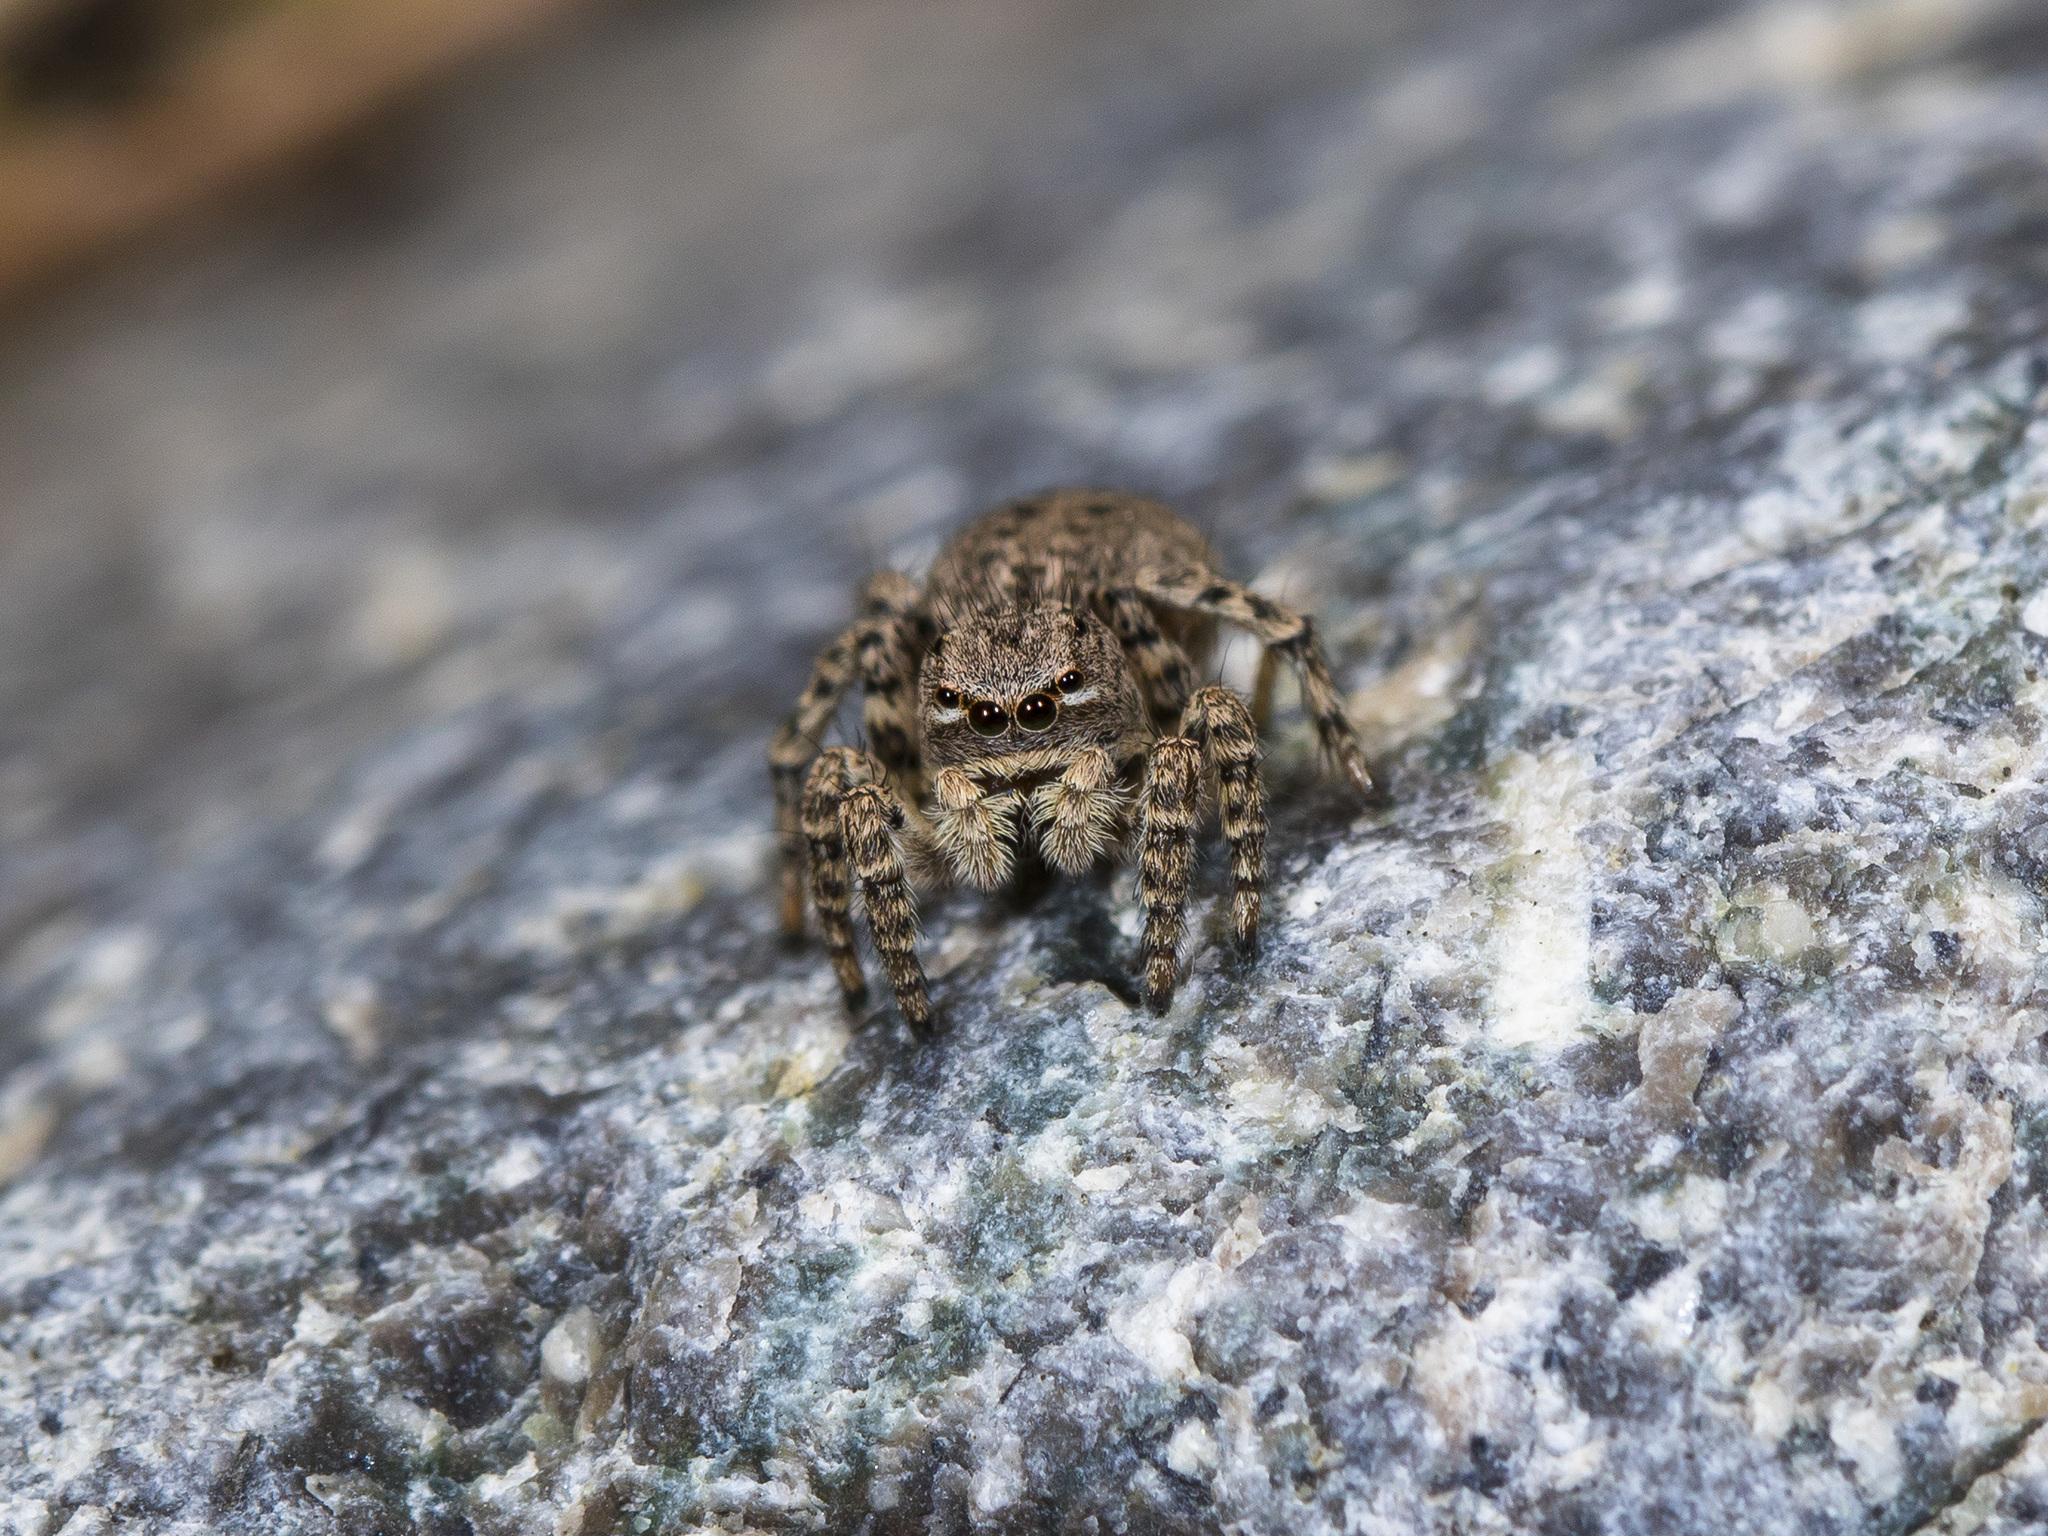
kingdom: Animalia
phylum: Arthropoda
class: Arachnida
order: Araneae
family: Salticidae
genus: Aelurillus
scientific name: Aelurillus v-insignitus
